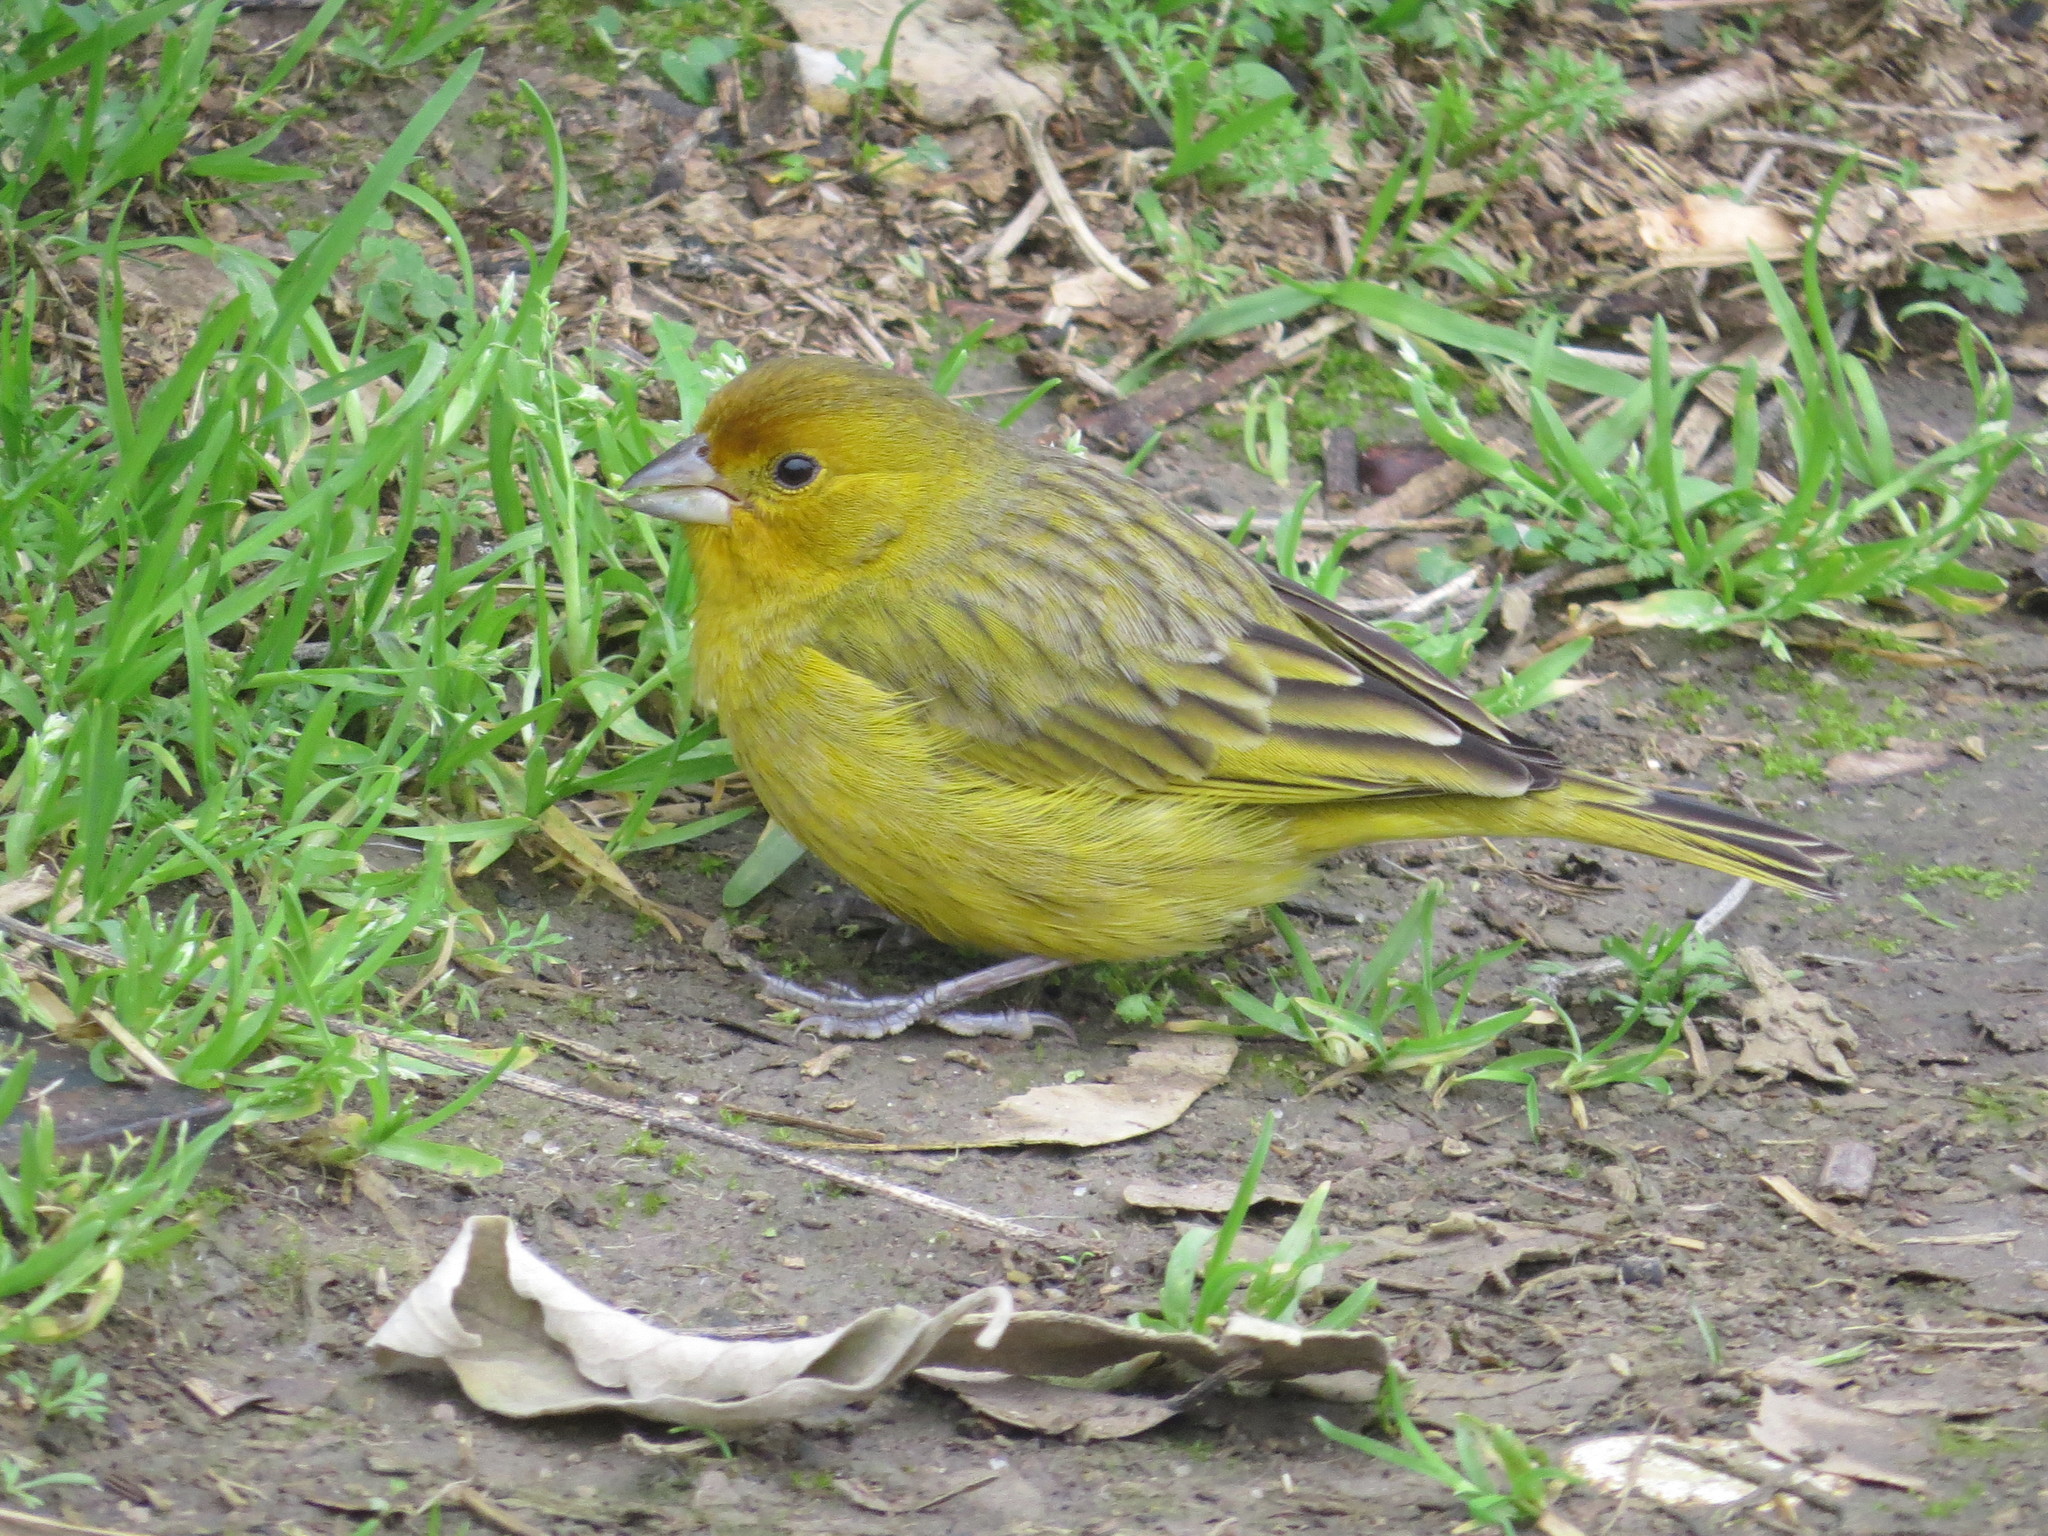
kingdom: Animalia
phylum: Chordata
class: Aves
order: Passeriformes
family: Thraupidae
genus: Sicalis
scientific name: Sicalis flaveola
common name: Saffron finch
